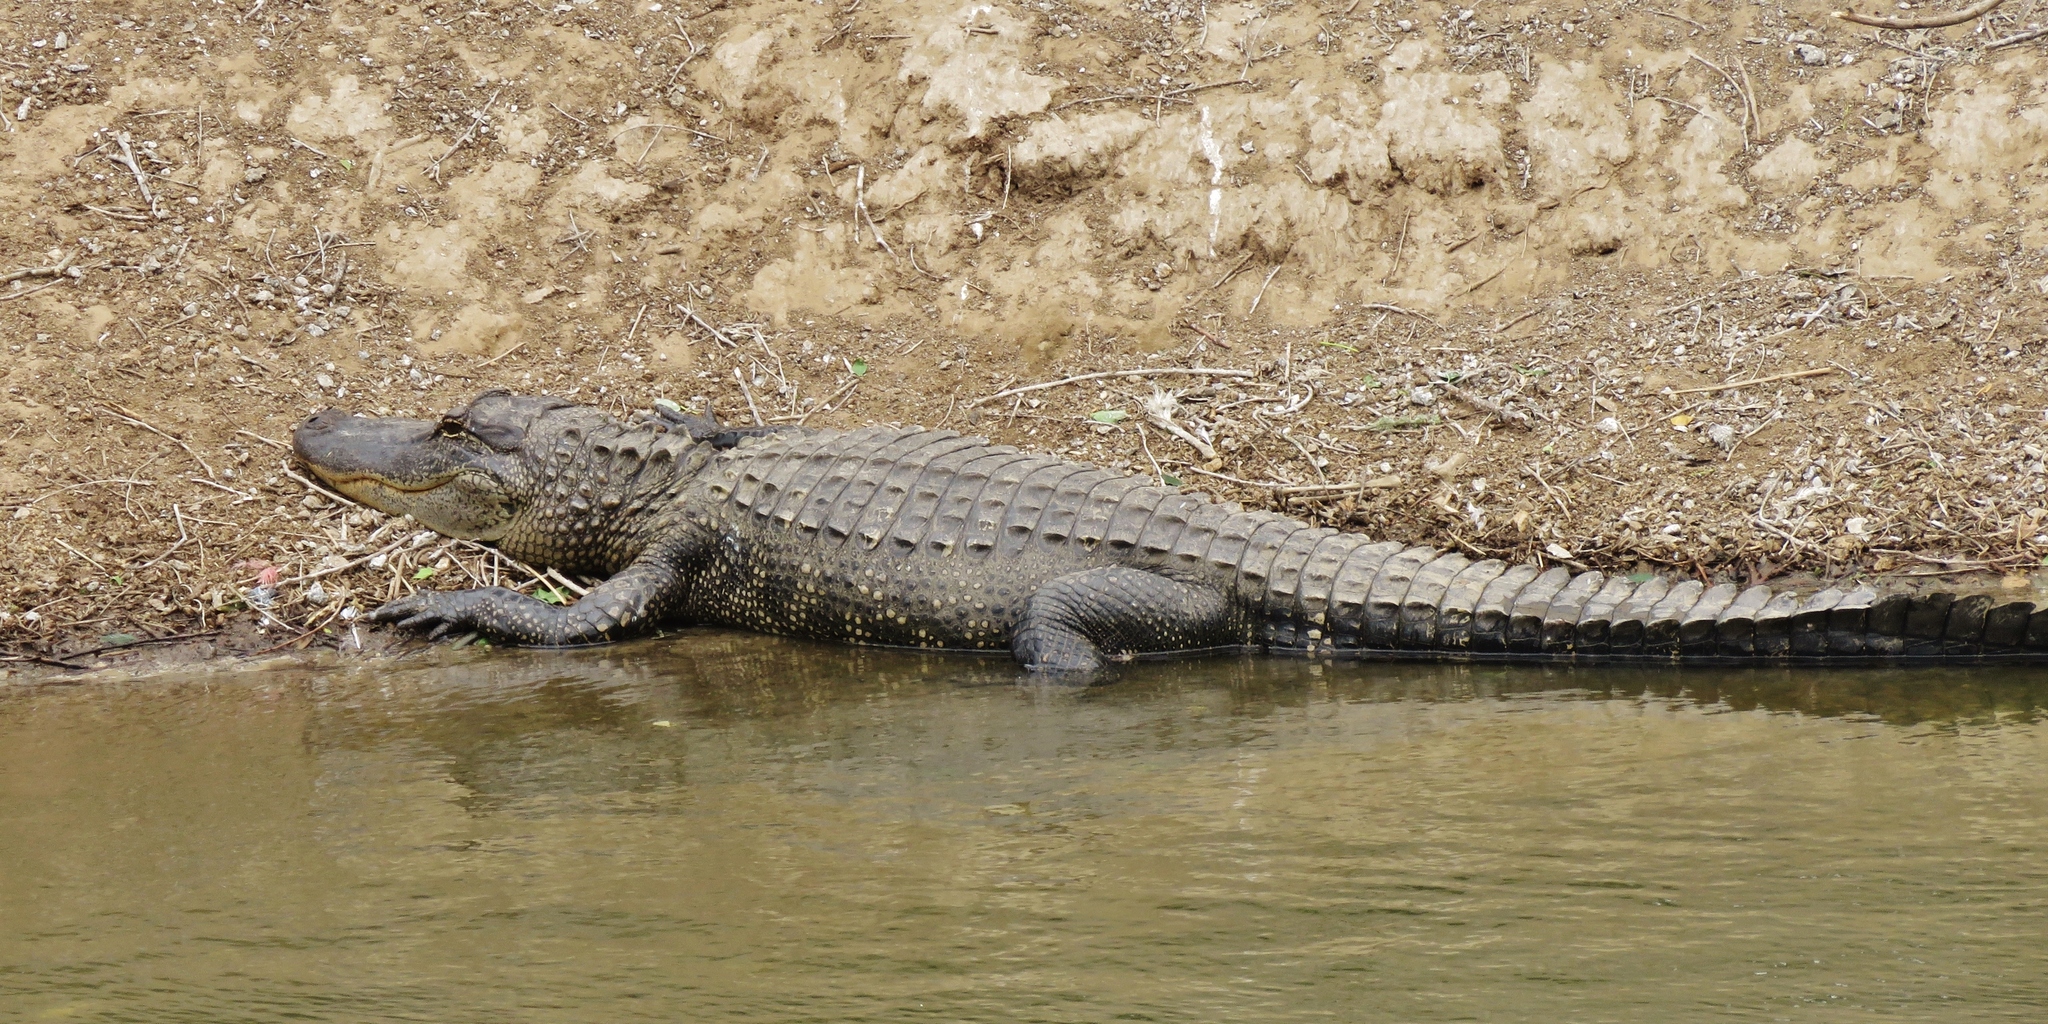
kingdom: Animalia
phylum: Chordata
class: Crocodylia
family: Alligatoridae
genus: Alligator
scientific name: Alligator mississippiensis
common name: American alligator
